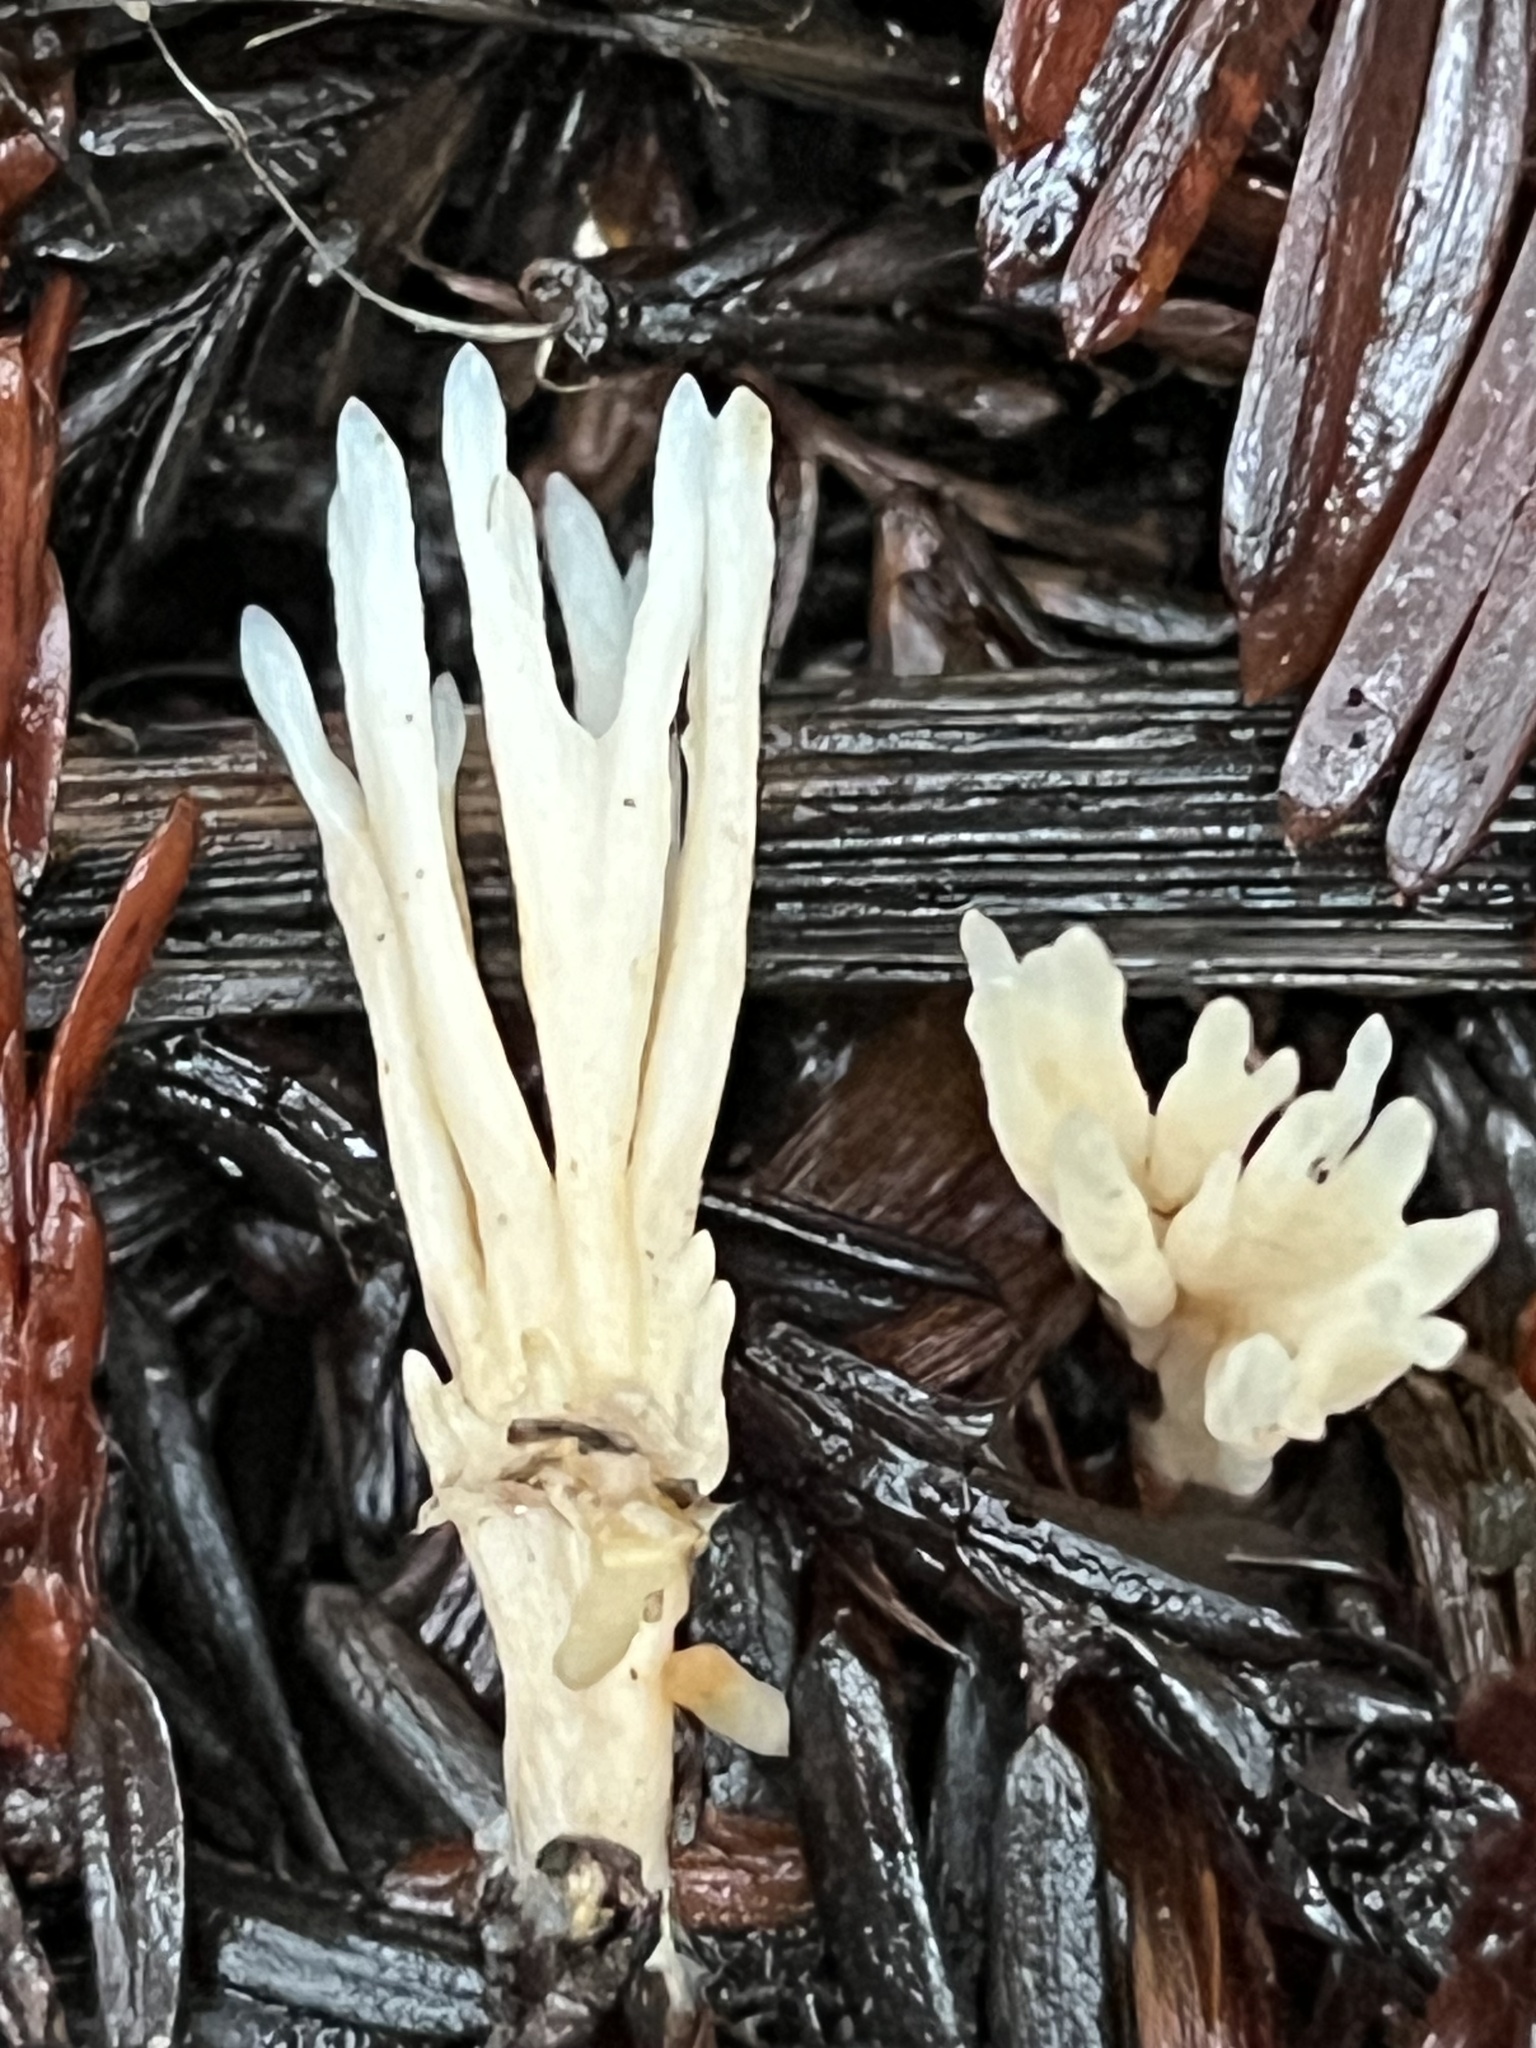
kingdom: Fungi
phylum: Basidiomycota
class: Agaricomycetes
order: Tremellodendropsidales
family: Tremellodendropsidaceae
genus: Tremellodendropsis
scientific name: Tremellodendropsis tuberosa
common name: Ashen coral
